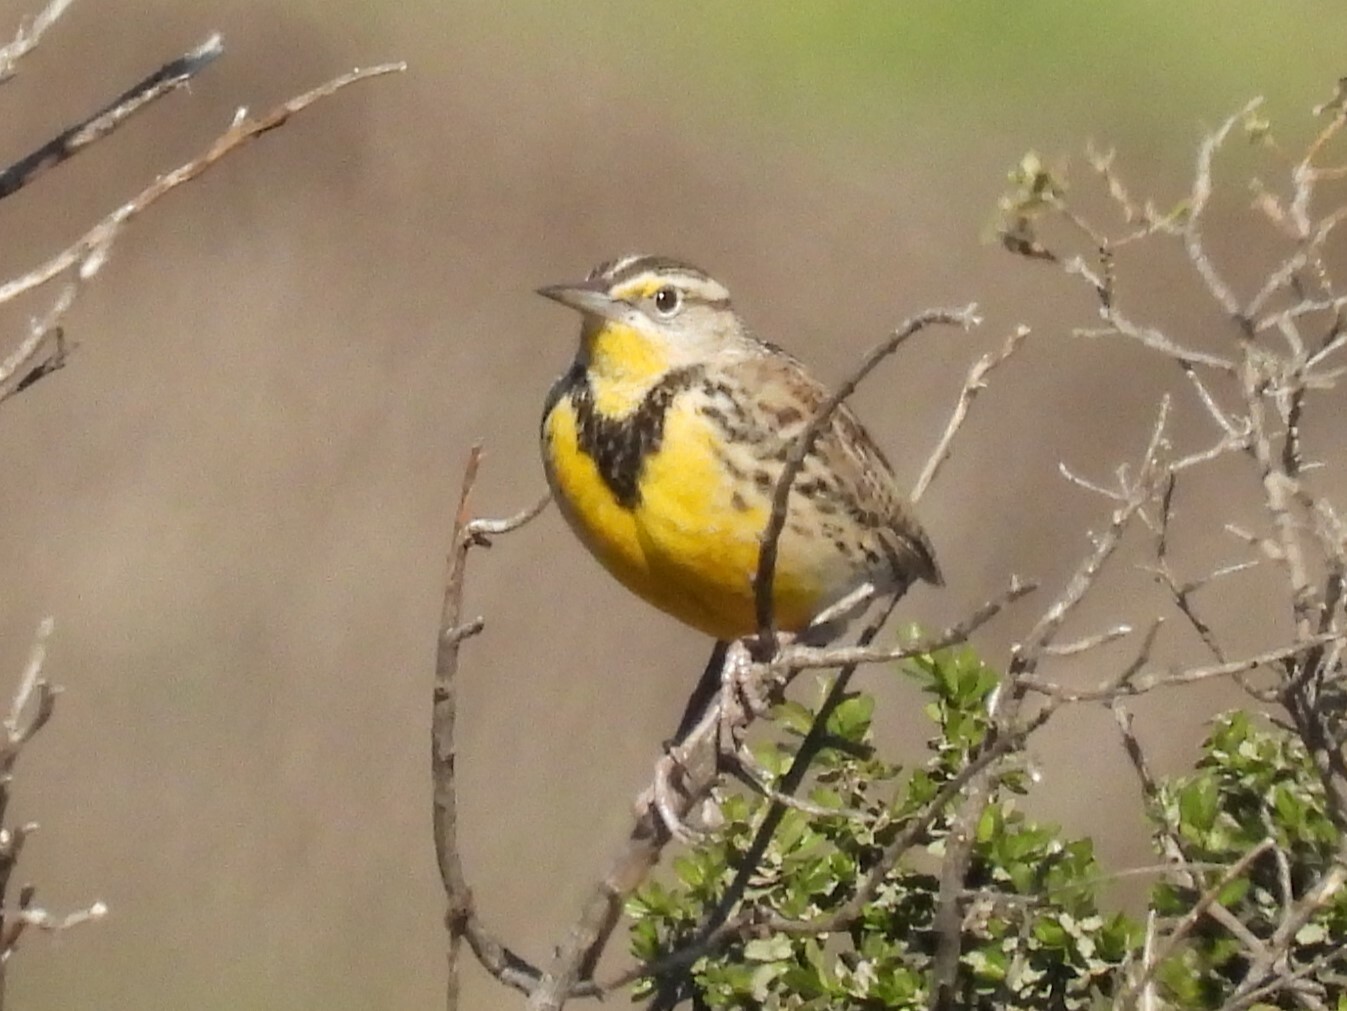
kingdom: Animalia
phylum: Chordata
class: Aves
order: Passeriformes
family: Icteridae
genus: Sturnella
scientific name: Sturnella neglecta
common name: Western meadowlark
